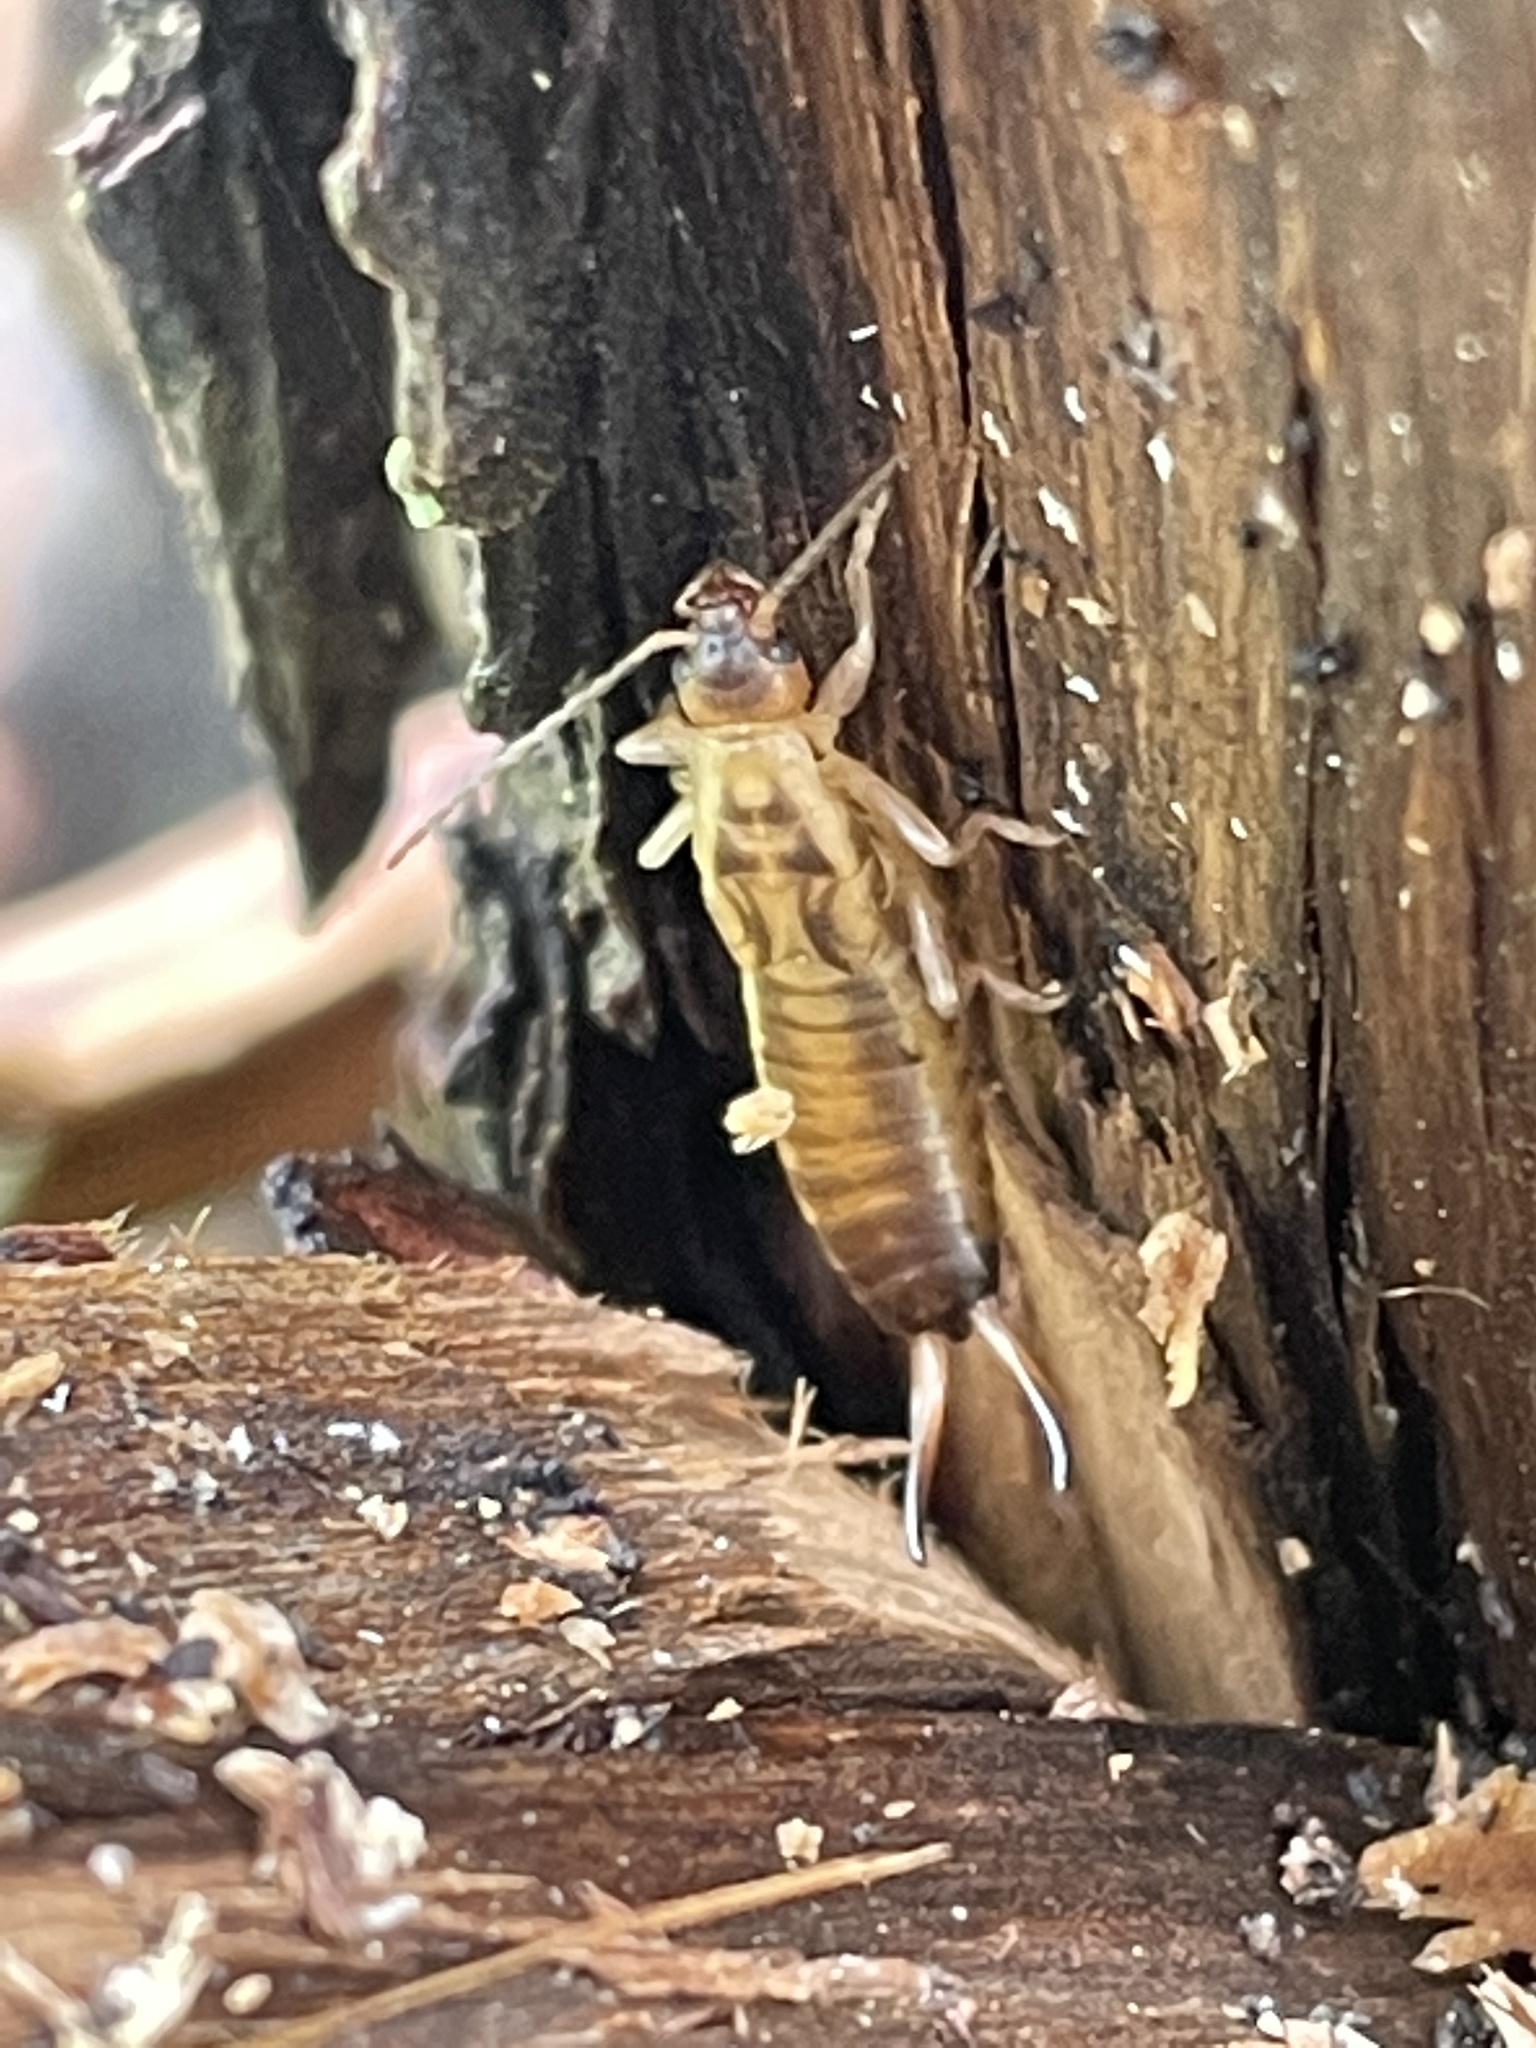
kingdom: Animalia
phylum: Arthropoda
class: Insecta
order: Dermaptera
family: Forficulidae
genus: Forficula
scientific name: Forficula
